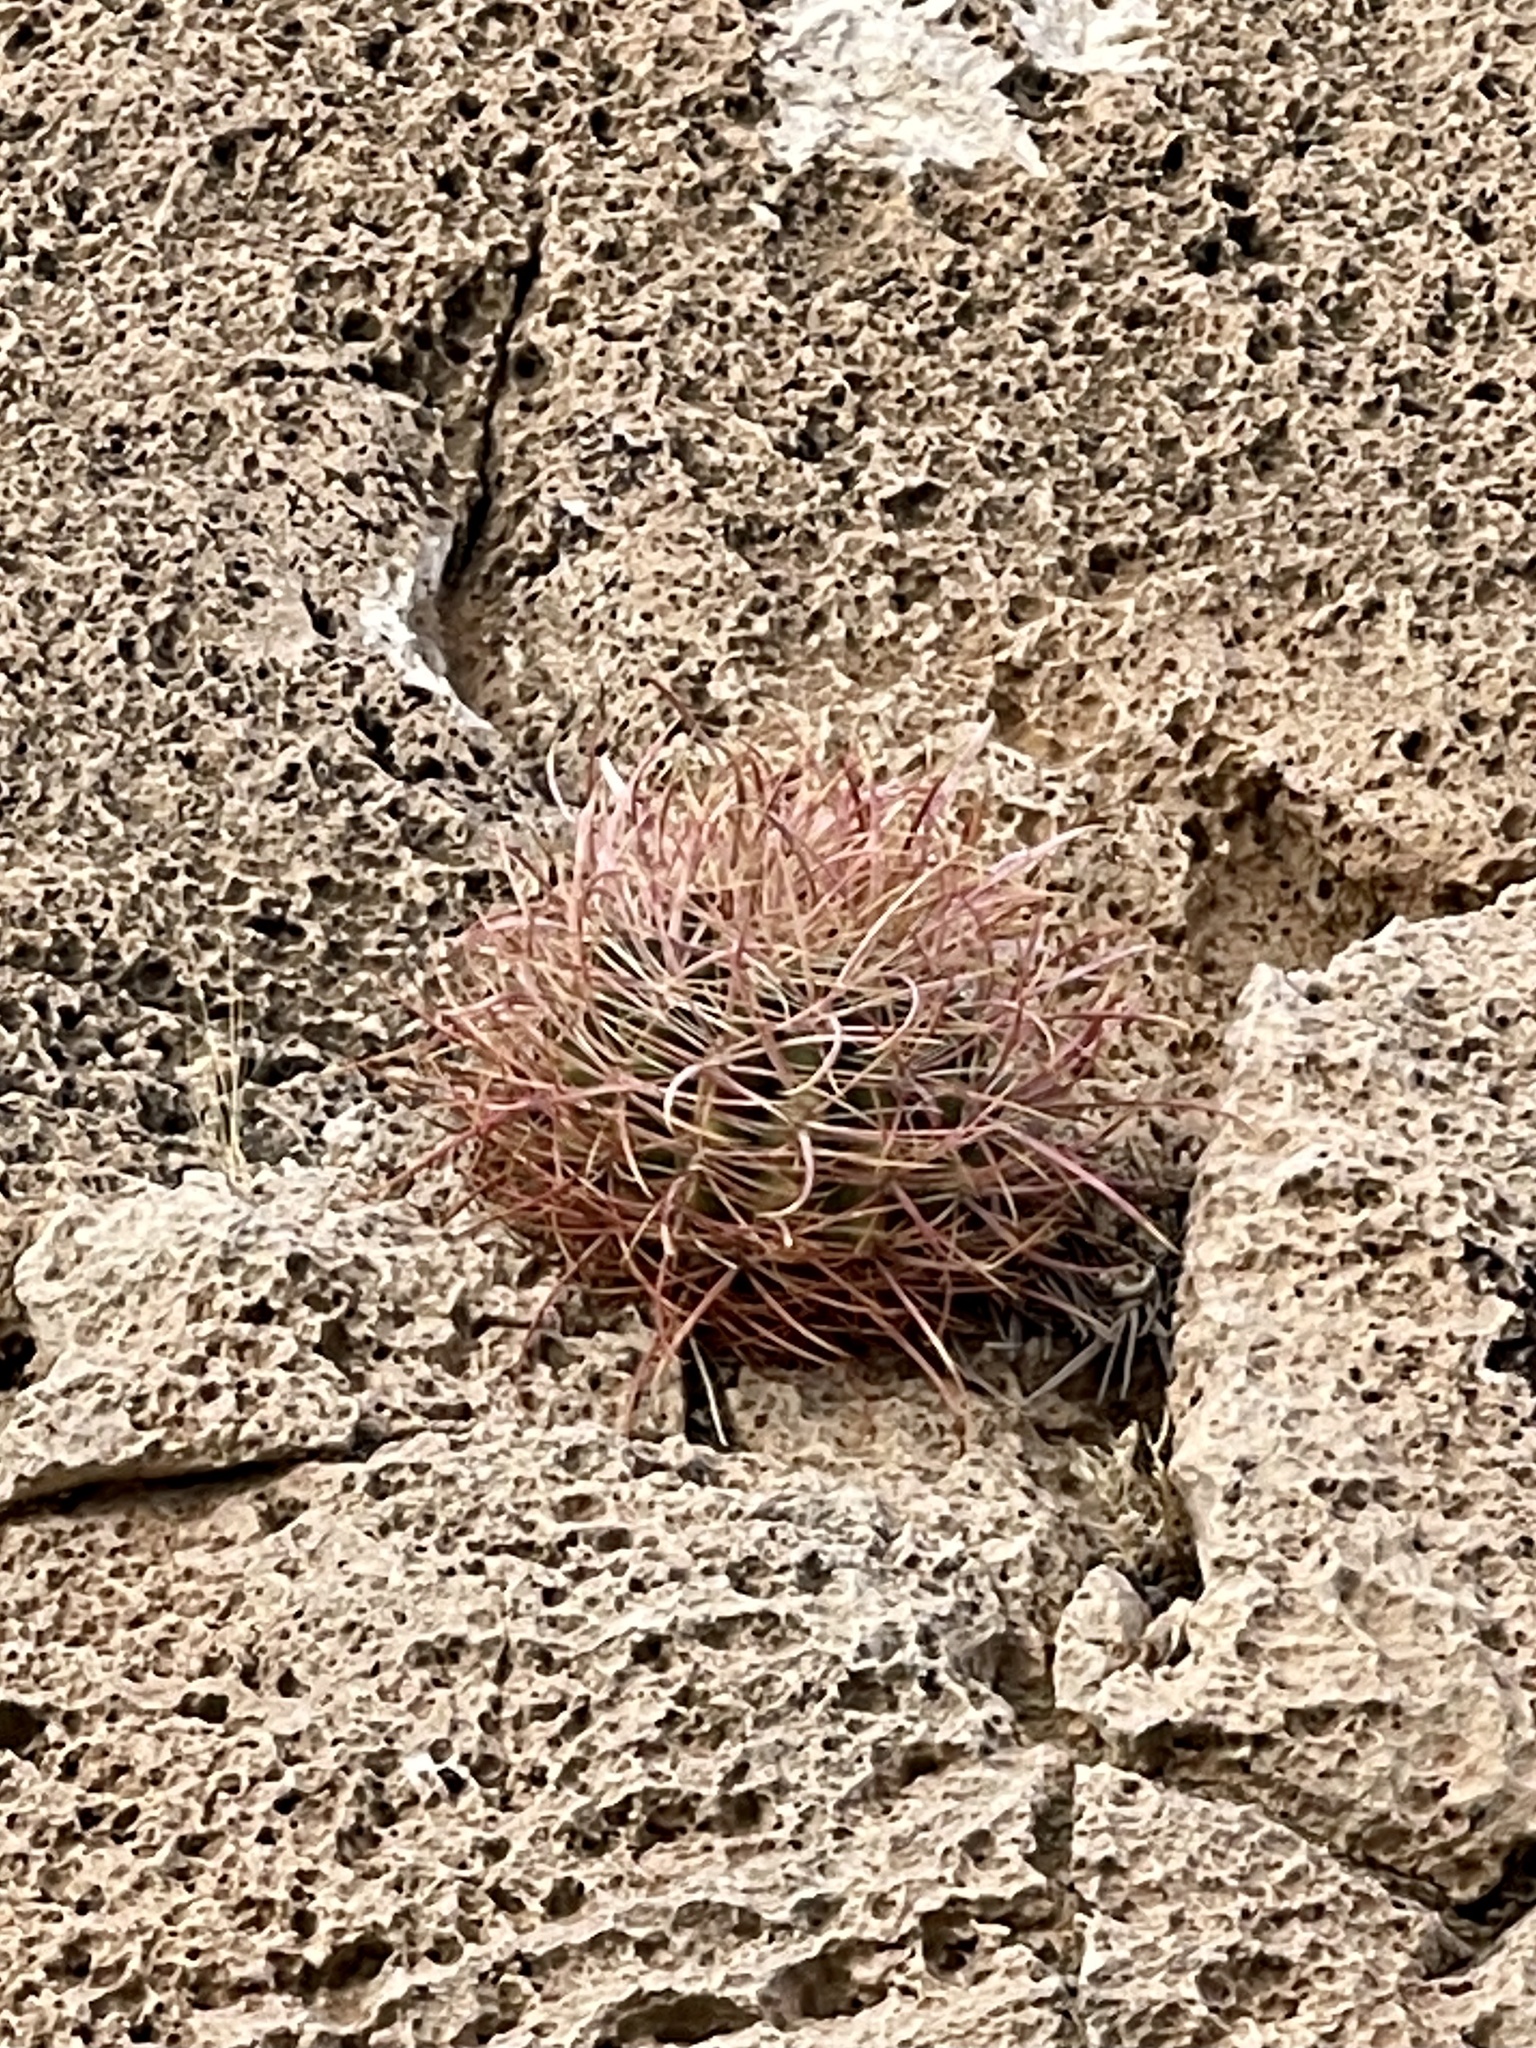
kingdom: Plantae
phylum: Tracheophyta
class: Magnoliopsida
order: Caryophyllales
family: Cactaceae
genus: Ferocactus
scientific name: Ferocactus cylindraceus
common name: California barrel cactus
